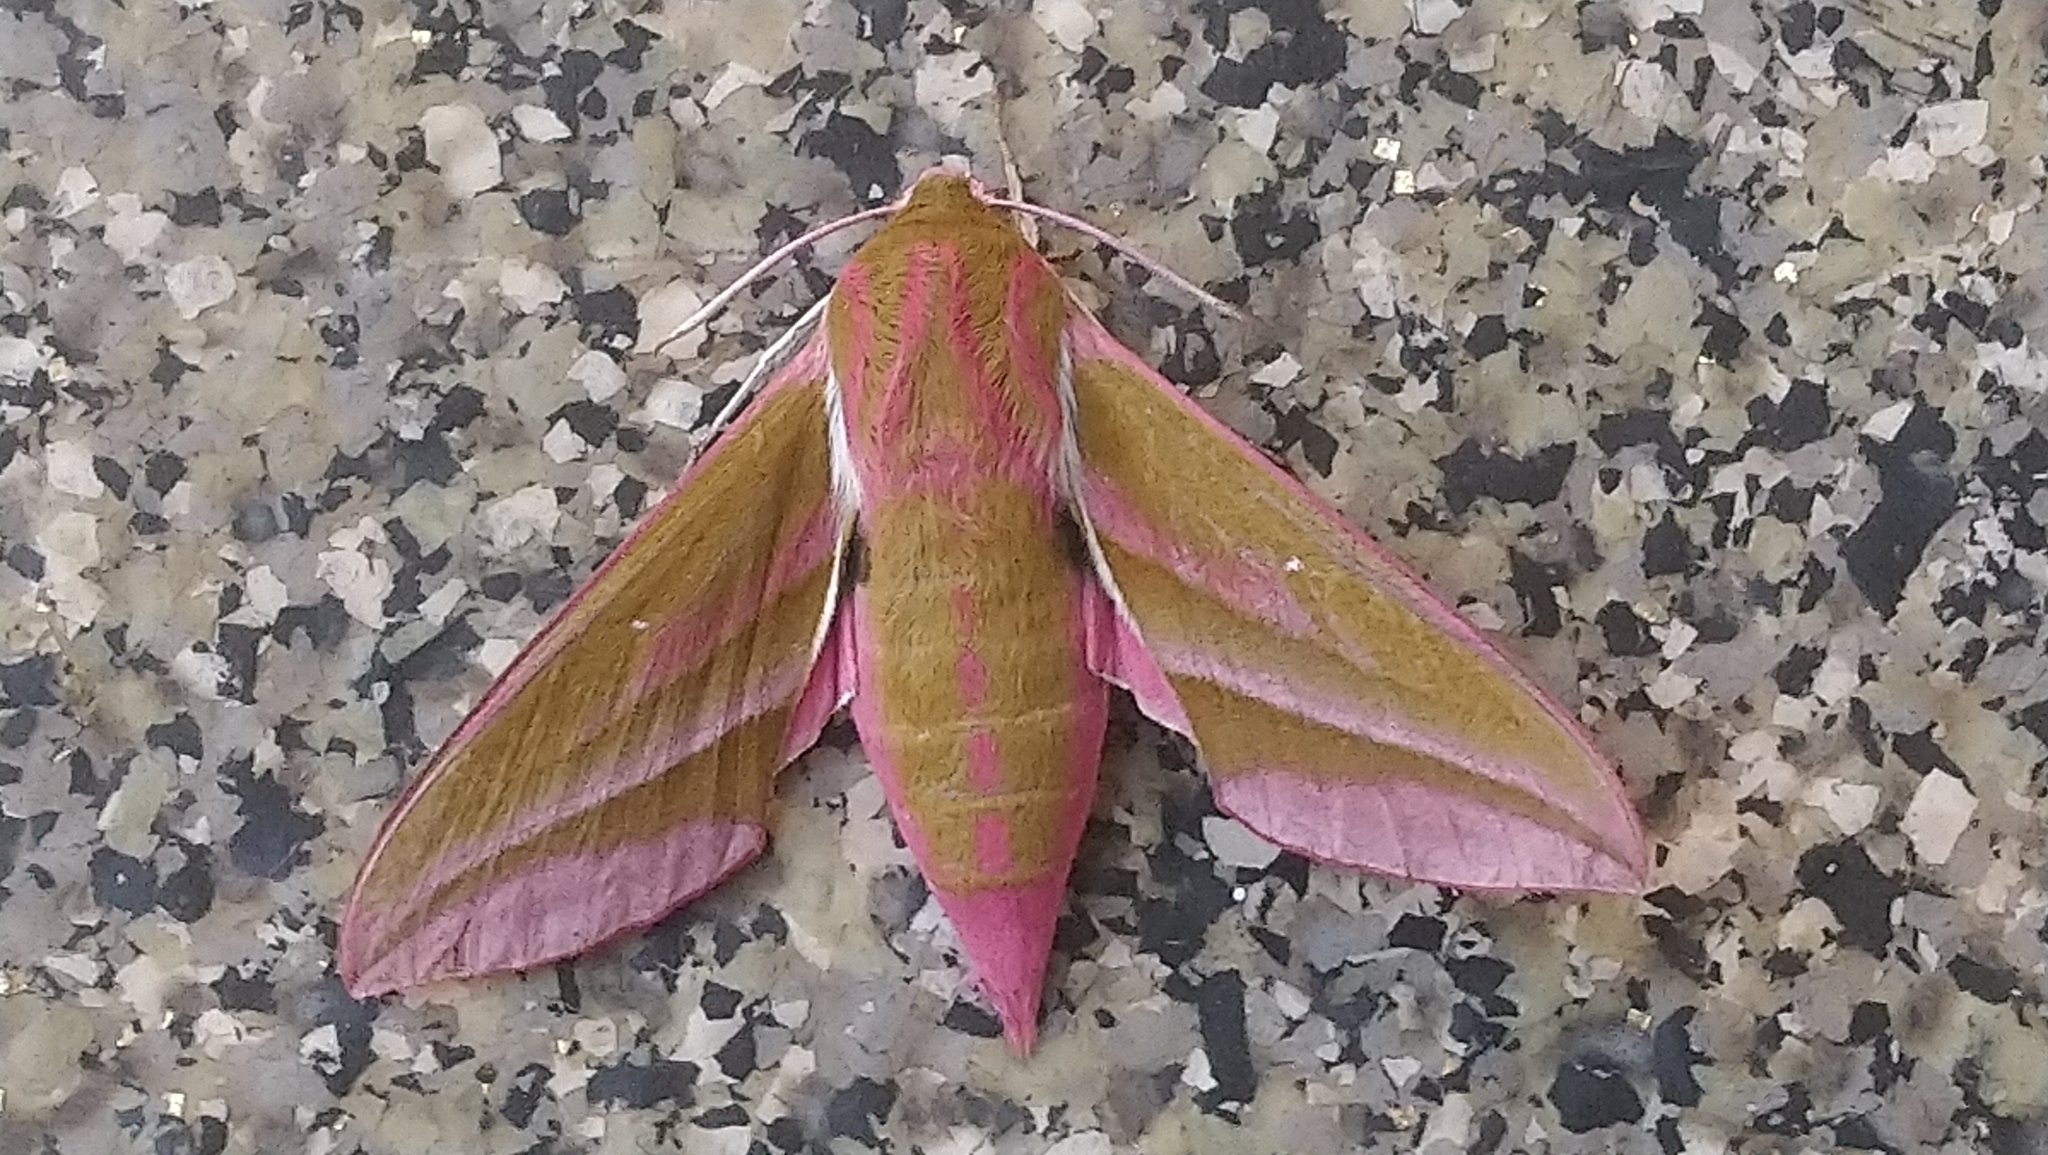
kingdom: Animalia
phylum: Arthropoda
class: Insecta
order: Lepidoptera
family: Sphingidae
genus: Deilephila
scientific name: Deilephila elpenor
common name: Elephant hawk-moth
